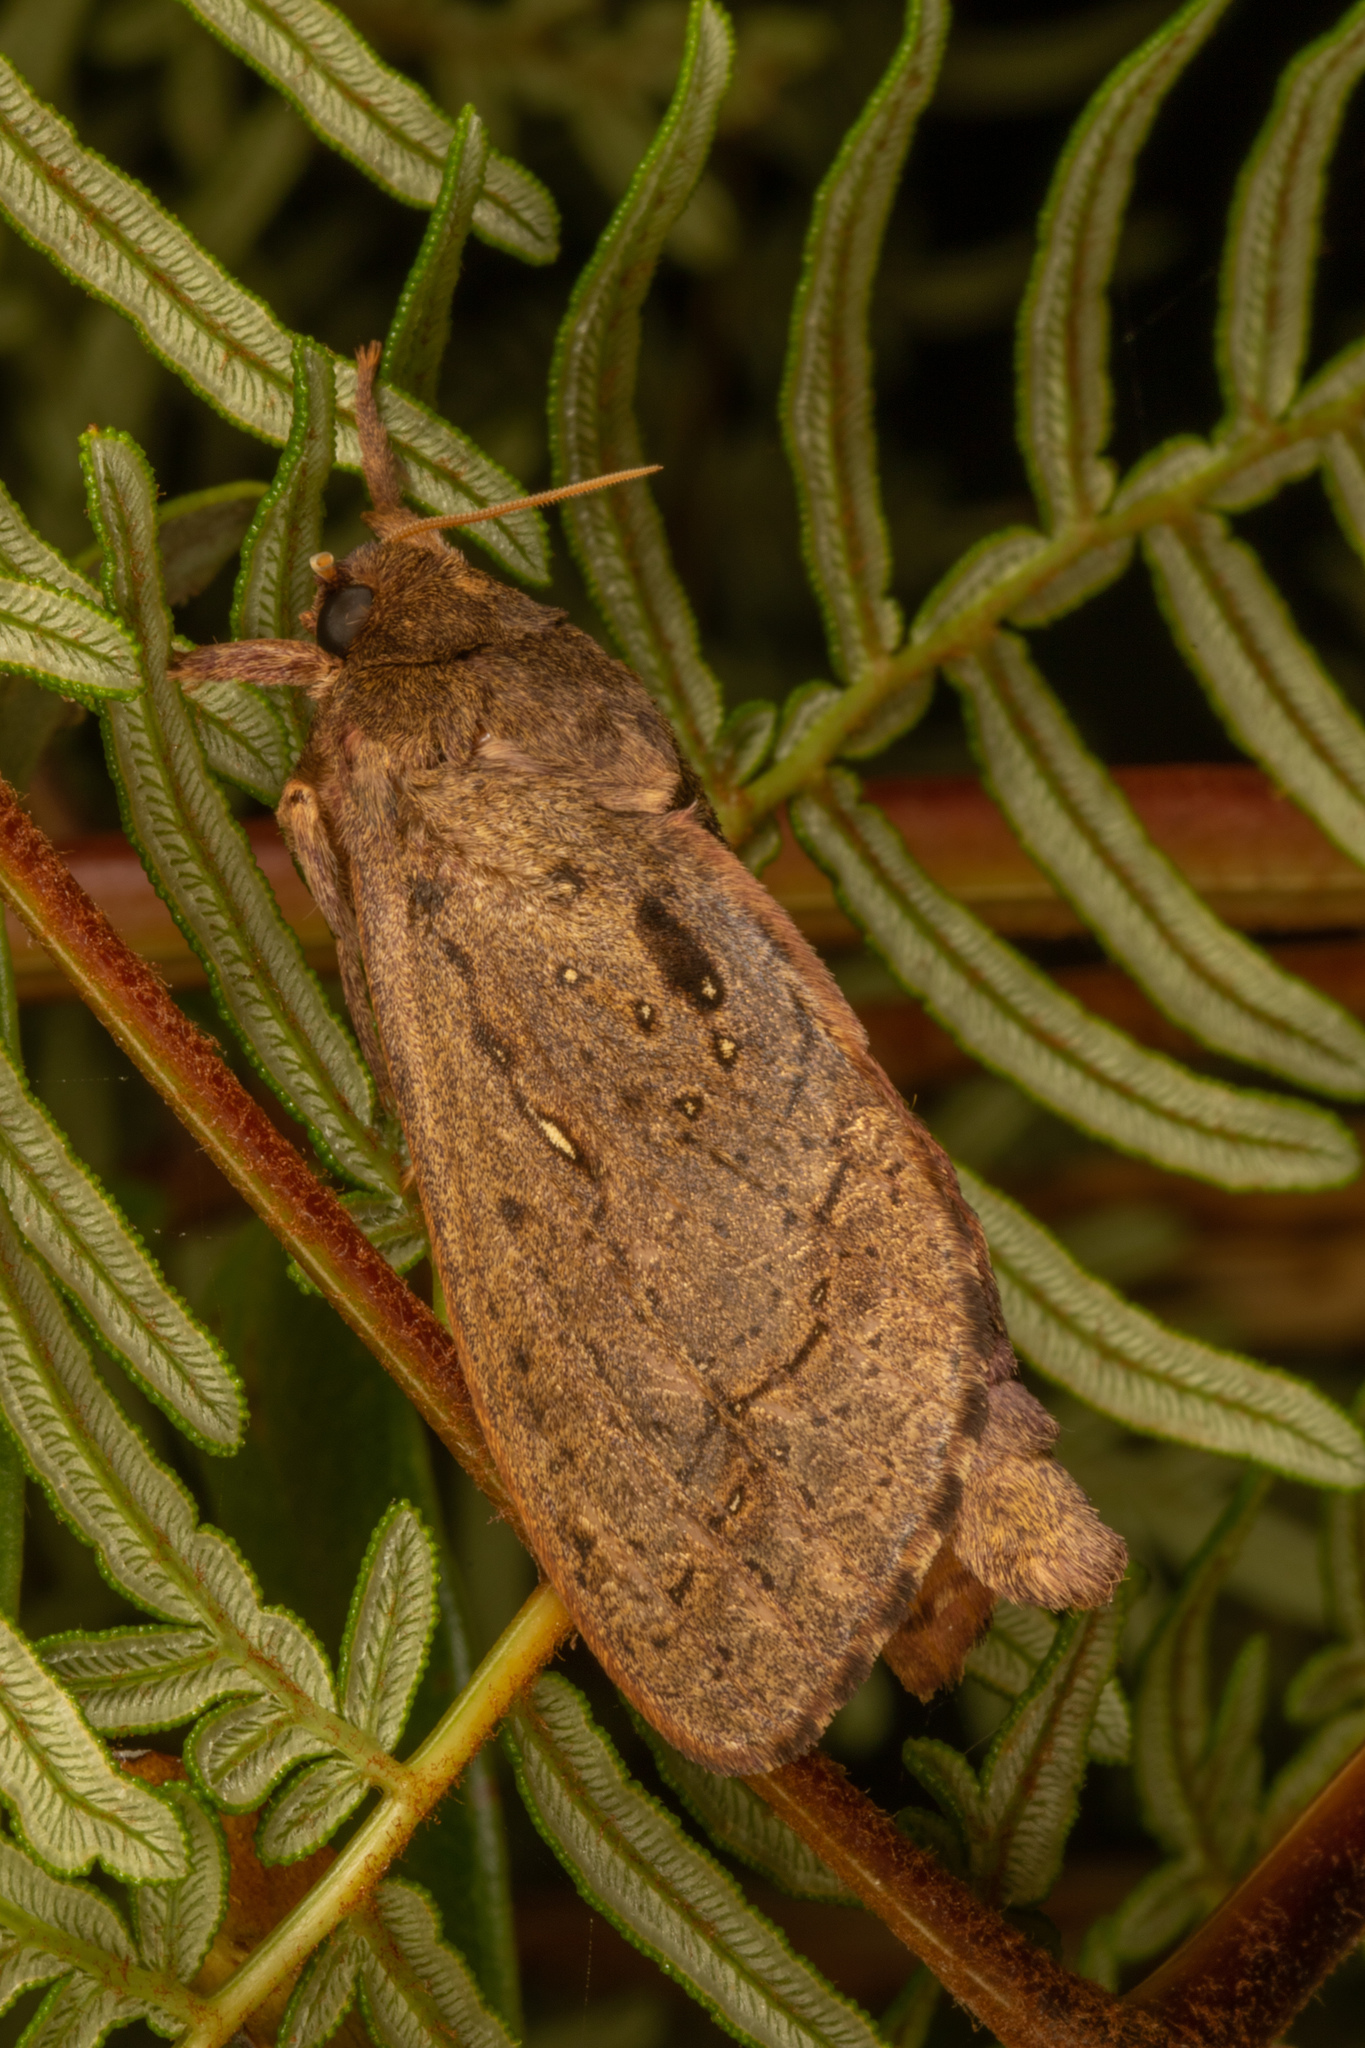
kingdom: Animalia
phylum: Arthropoda
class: Insecta
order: Lepidoptera
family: Hepialidae
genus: Dumbletonius
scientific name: Dumbletonius unimaculata
